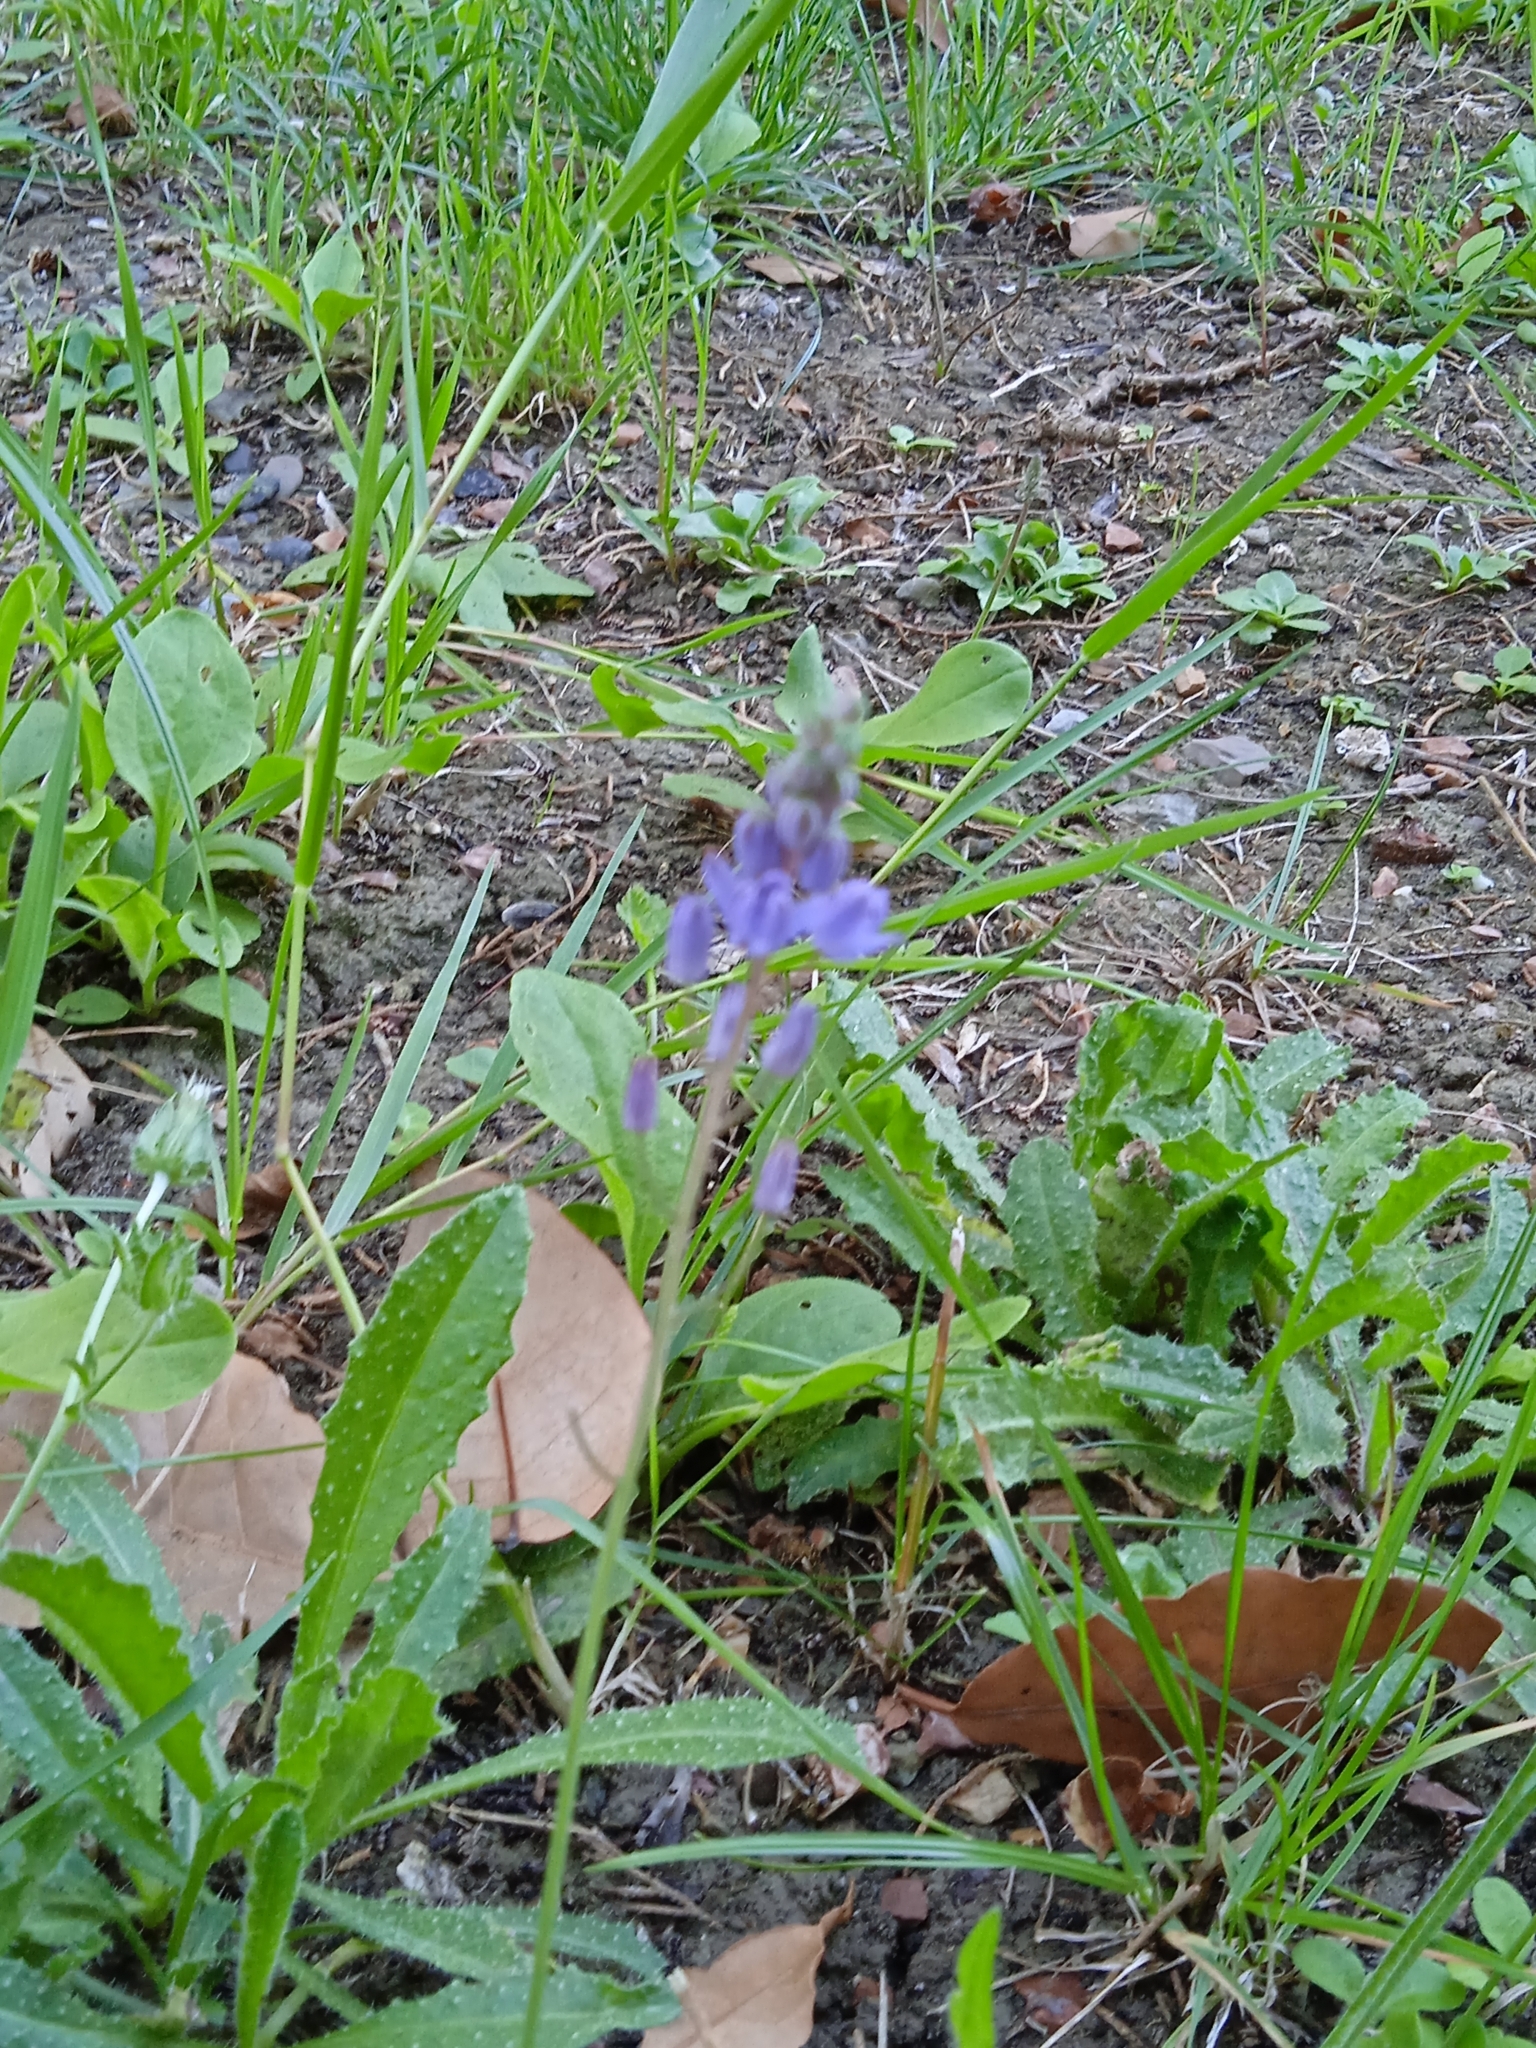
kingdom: Plantae
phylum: Tracheophyta
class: Liliopsida
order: Asparagales
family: Asparagaceae
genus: Prospero
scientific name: Prospero autumnale
